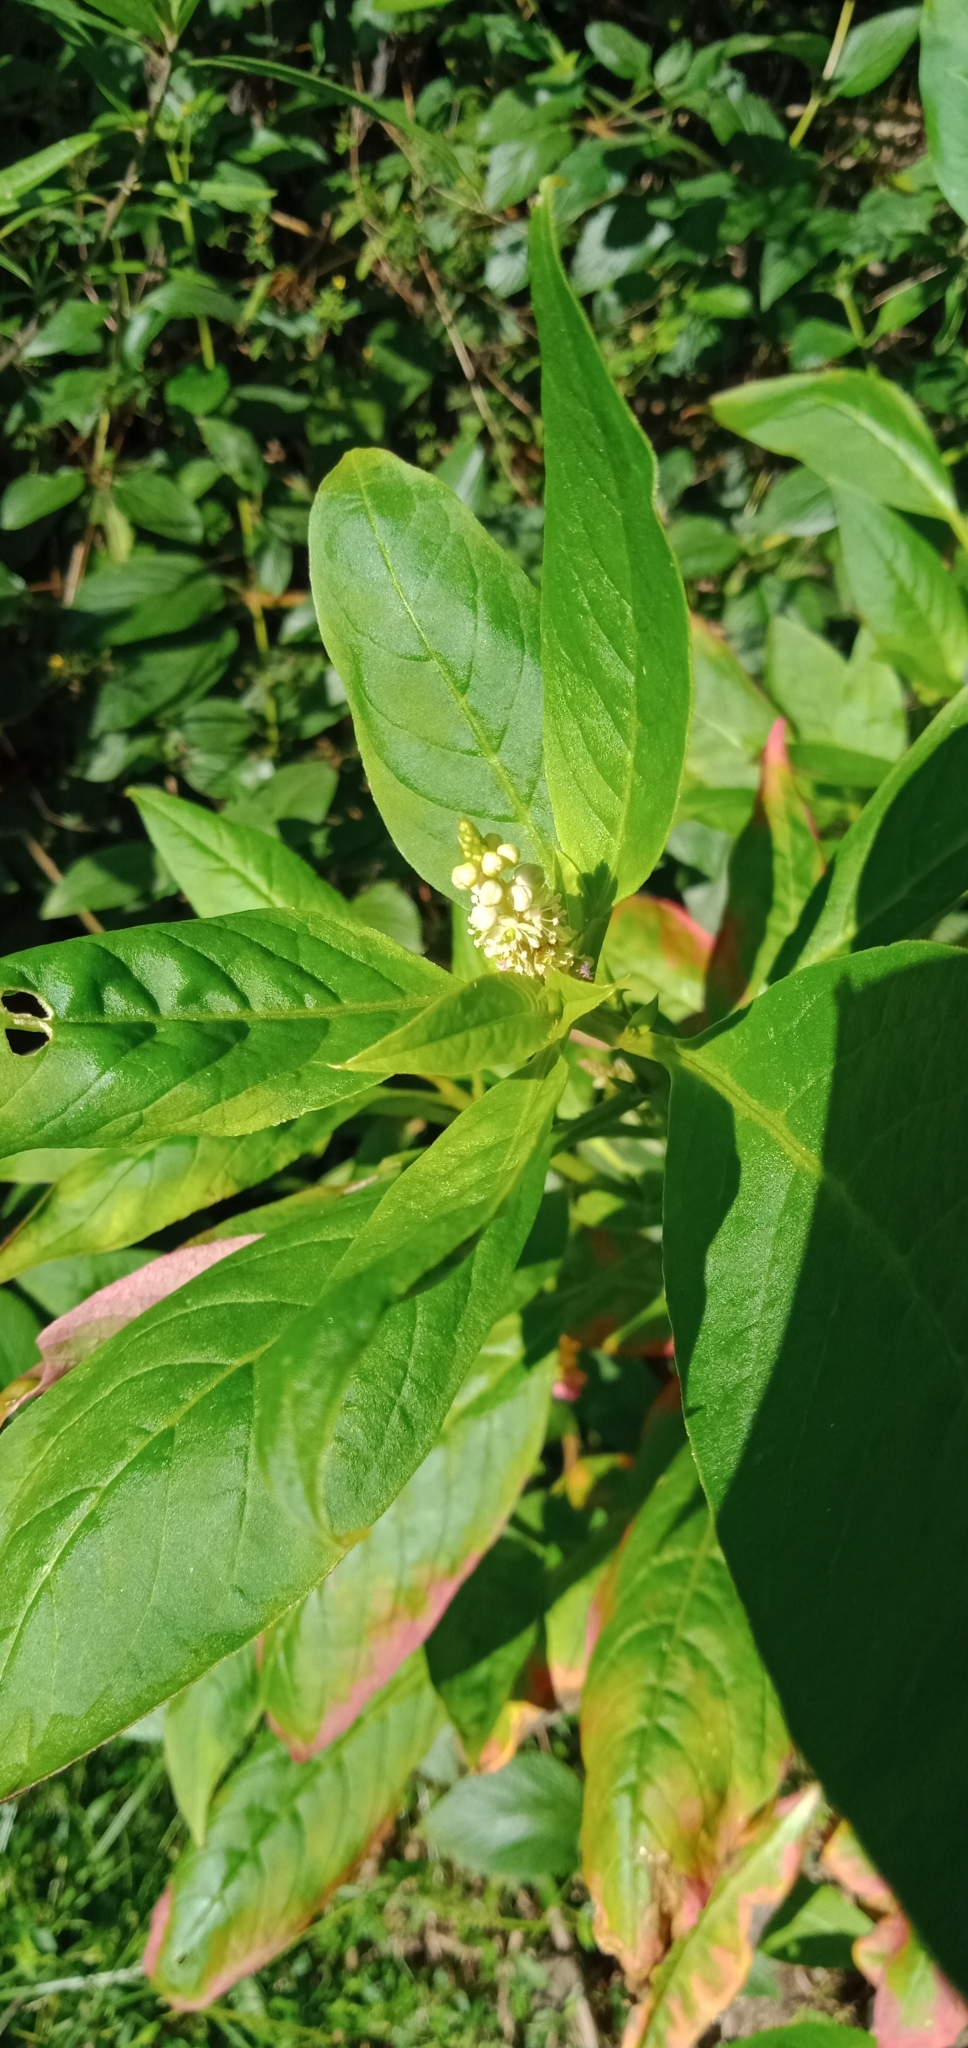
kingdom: Plantae
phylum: Tracheophyta
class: Magnoliopsida
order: Caryophyllales
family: Phytolaccaceae
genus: Phytolacca
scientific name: Phytolacca icosandra
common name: Button pokeweed
